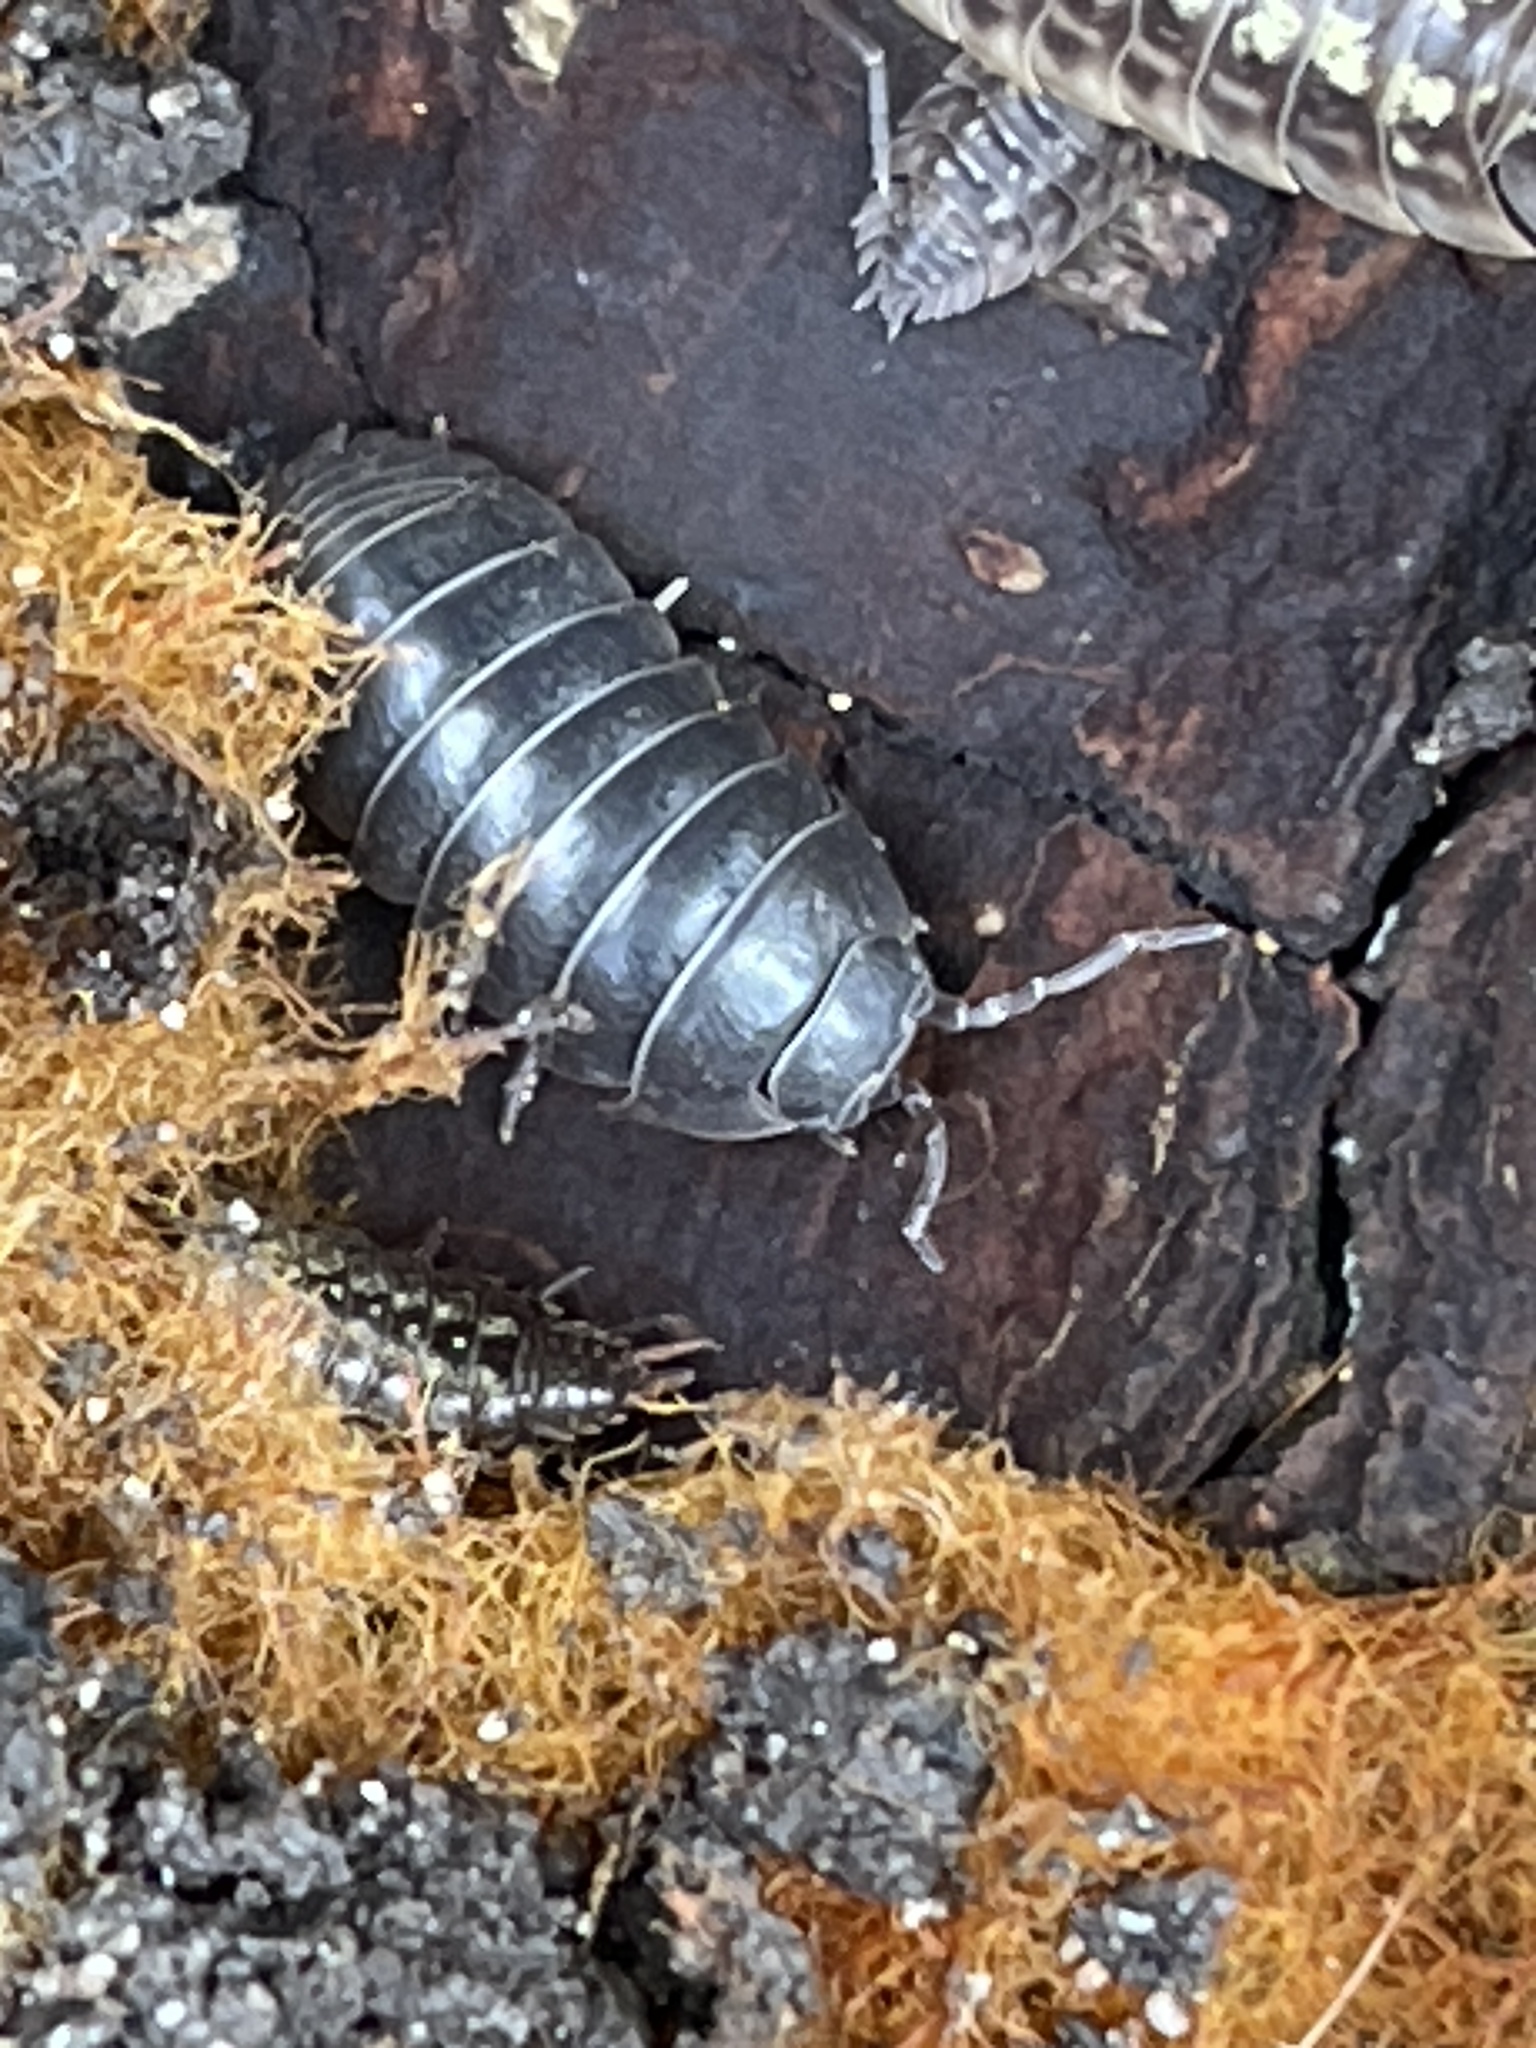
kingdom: Animalia
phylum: Arthropoda
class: Malacostraca
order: Isopoda
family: Armadillidiidae
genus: Armadillidium
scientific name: Armadillidium vulgare
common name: Common pill woodlouse
